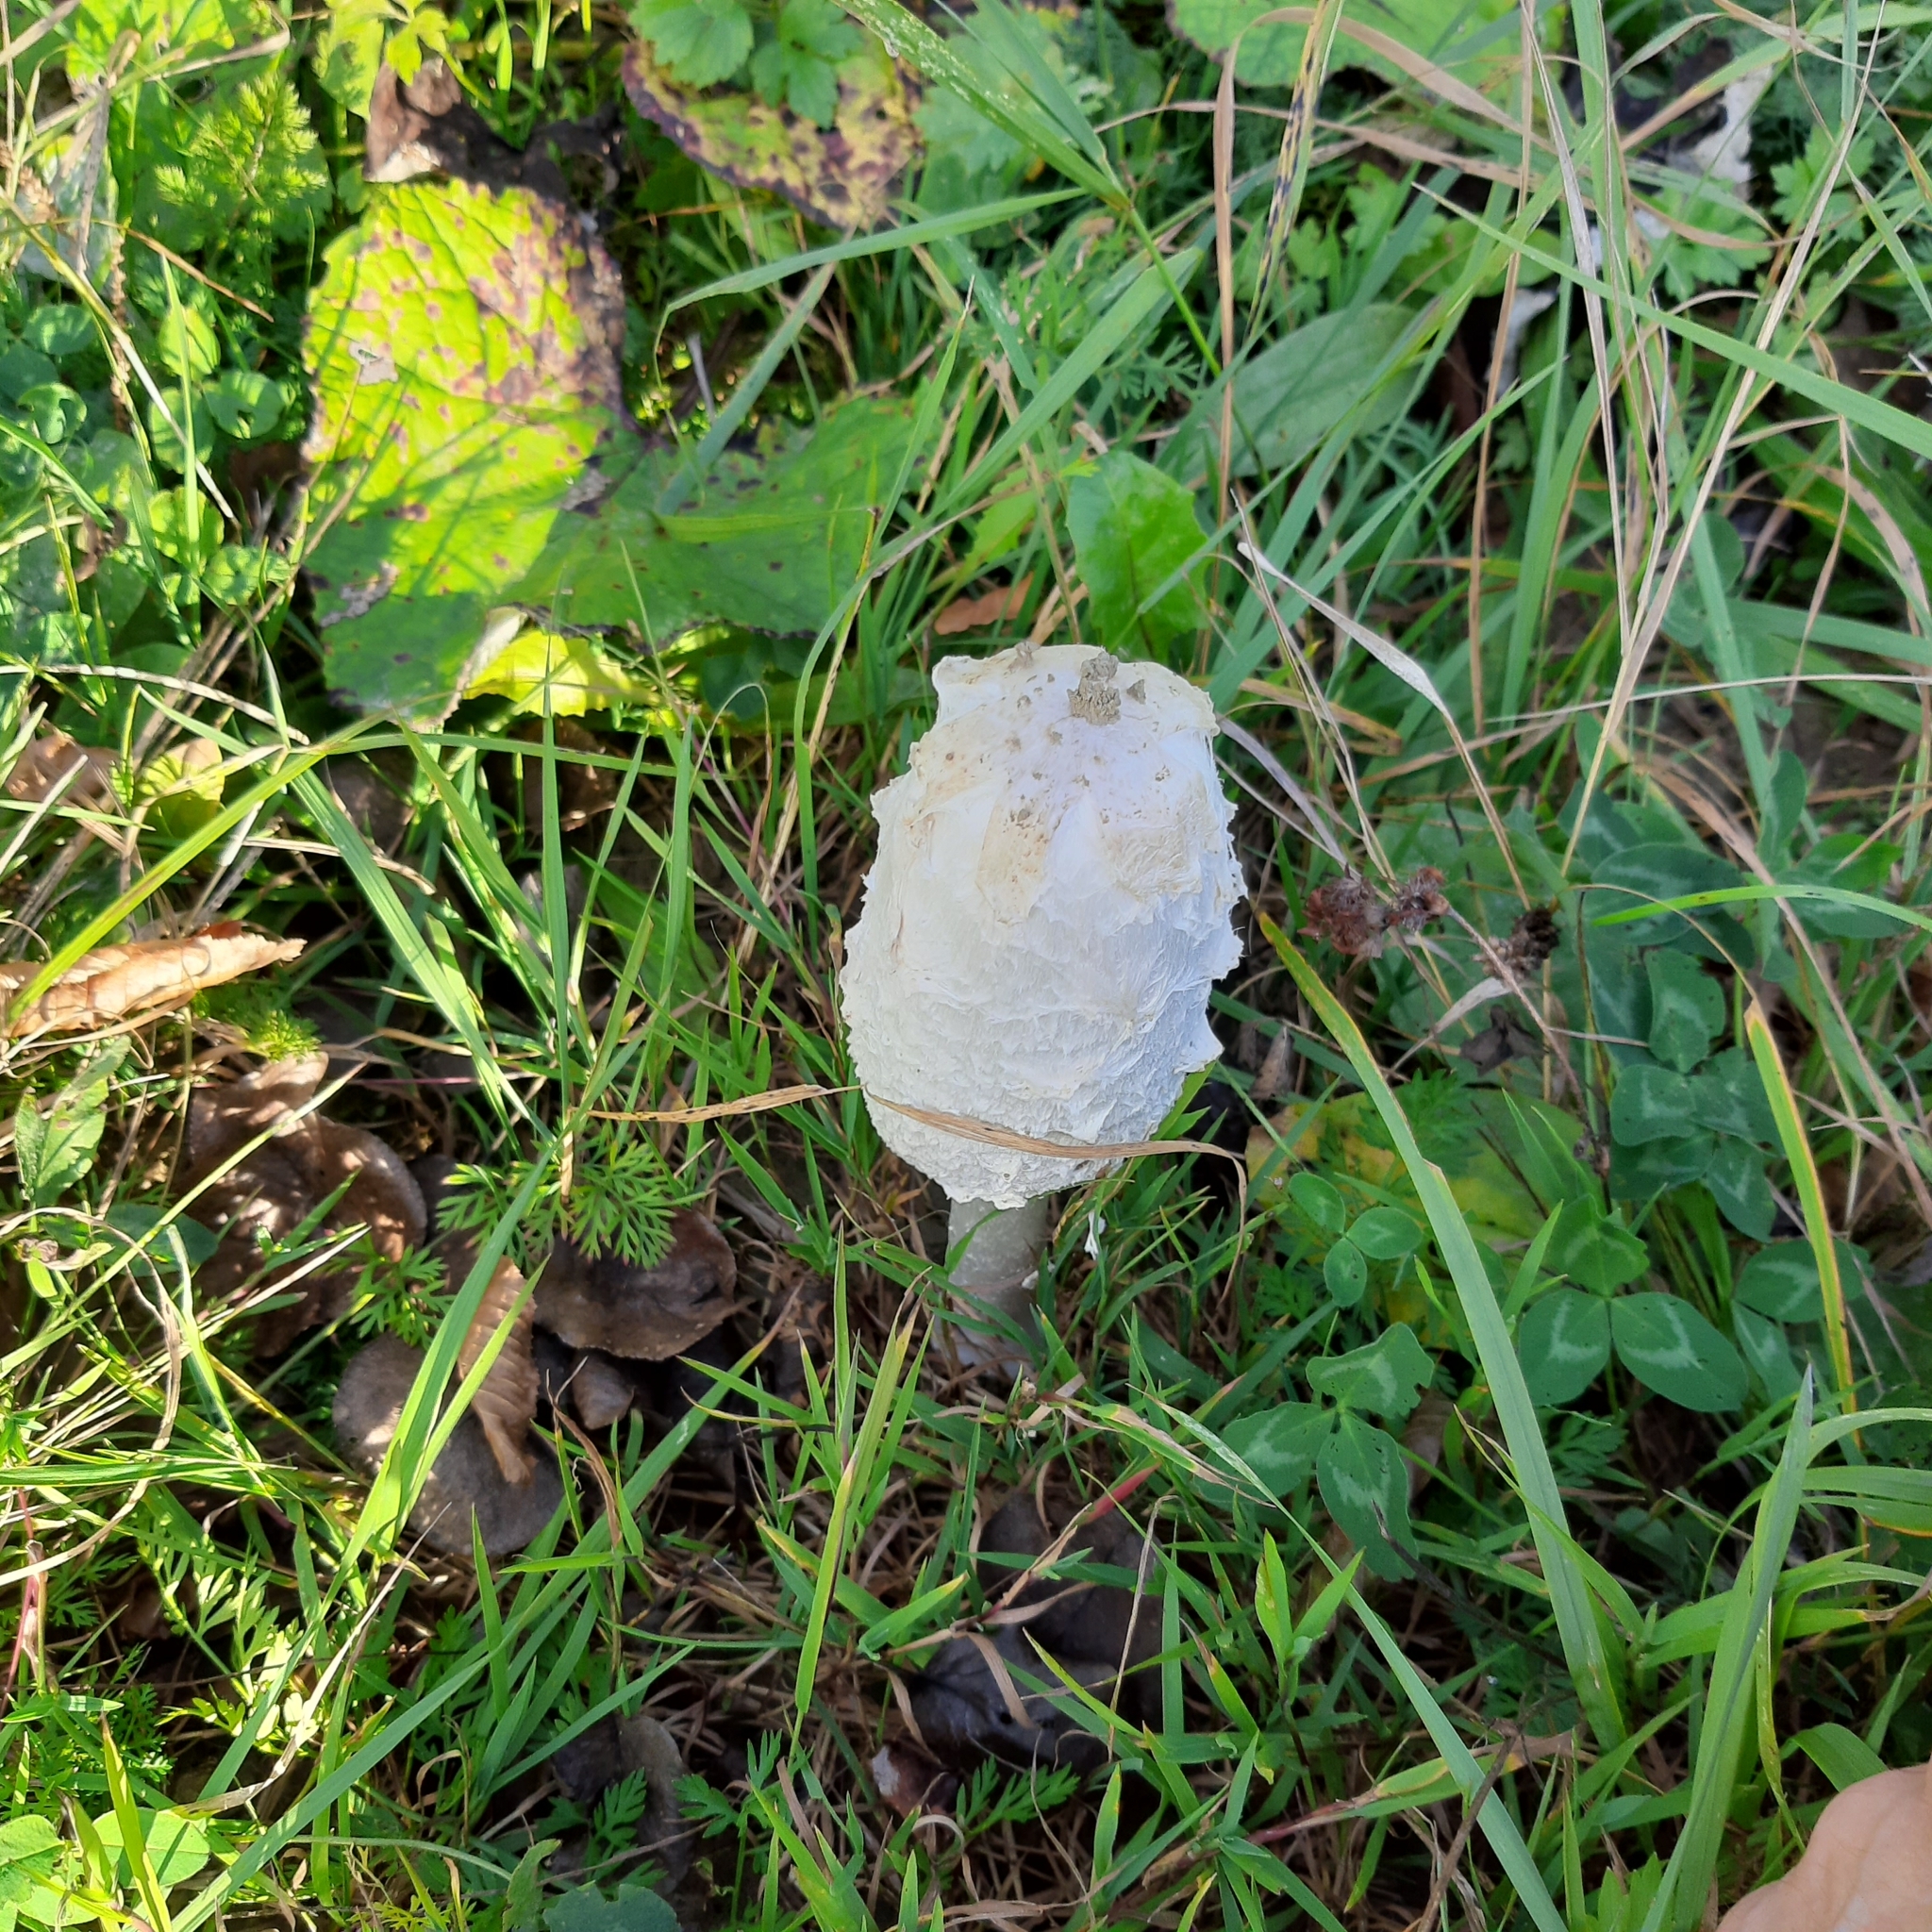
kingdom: Fungi
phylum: Basidiomycota
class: Agaricomycetes
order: Agaricales
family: Agaricaceae
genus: Coprinus
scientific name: Coprinus comatus
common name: Lawyer's wig
